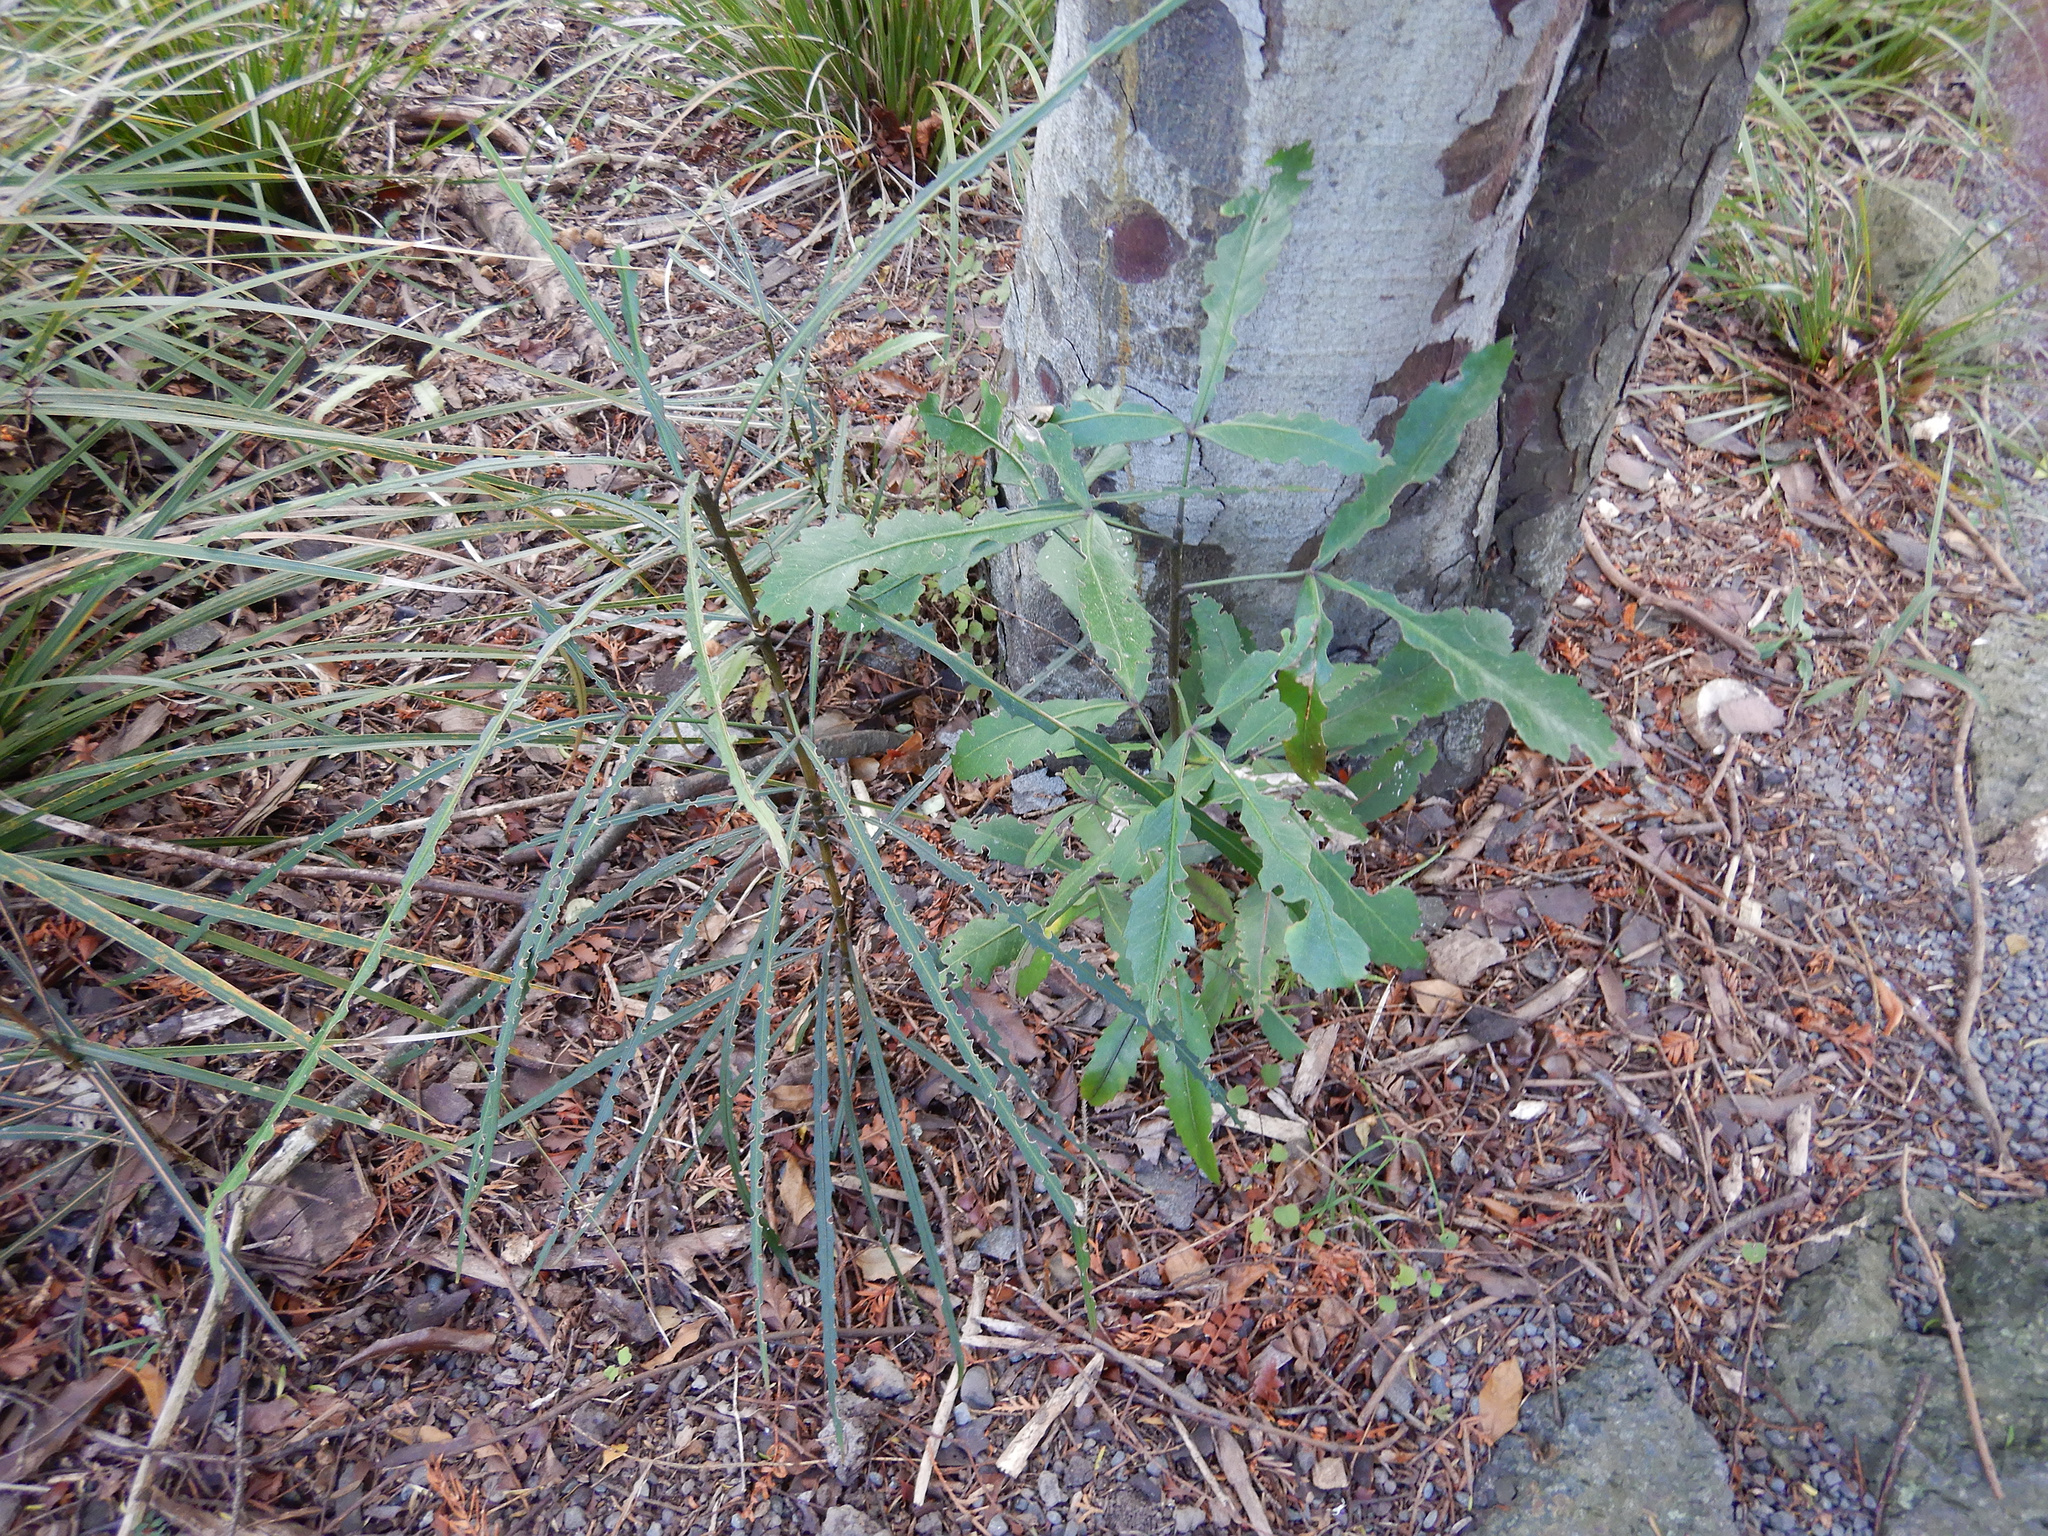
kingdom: Plantae
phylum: Tracheophyta
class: Magnoliopsida
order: Apiales
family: Araliaceae
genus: Pseudopanax
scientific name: Pseudopanax
